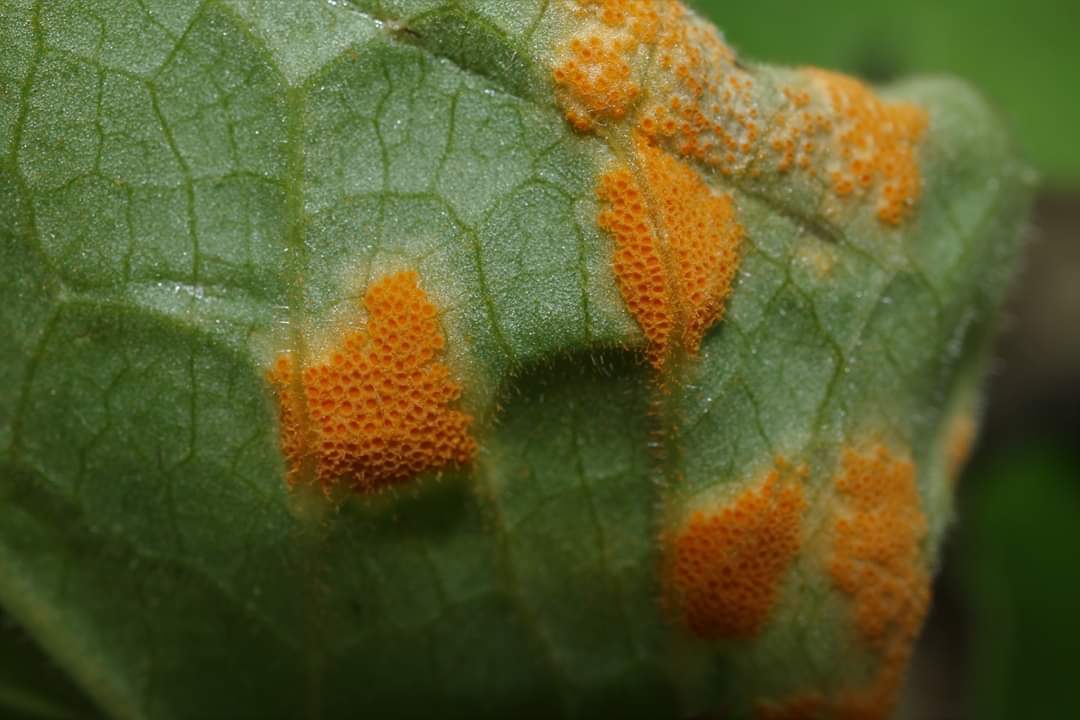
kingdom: Fungi
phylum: Basidiomycota
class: Pucciniomycetes
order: Pucciniales
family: Pucciniaceae
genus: Puccinia
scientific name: Puccinia podophylli
